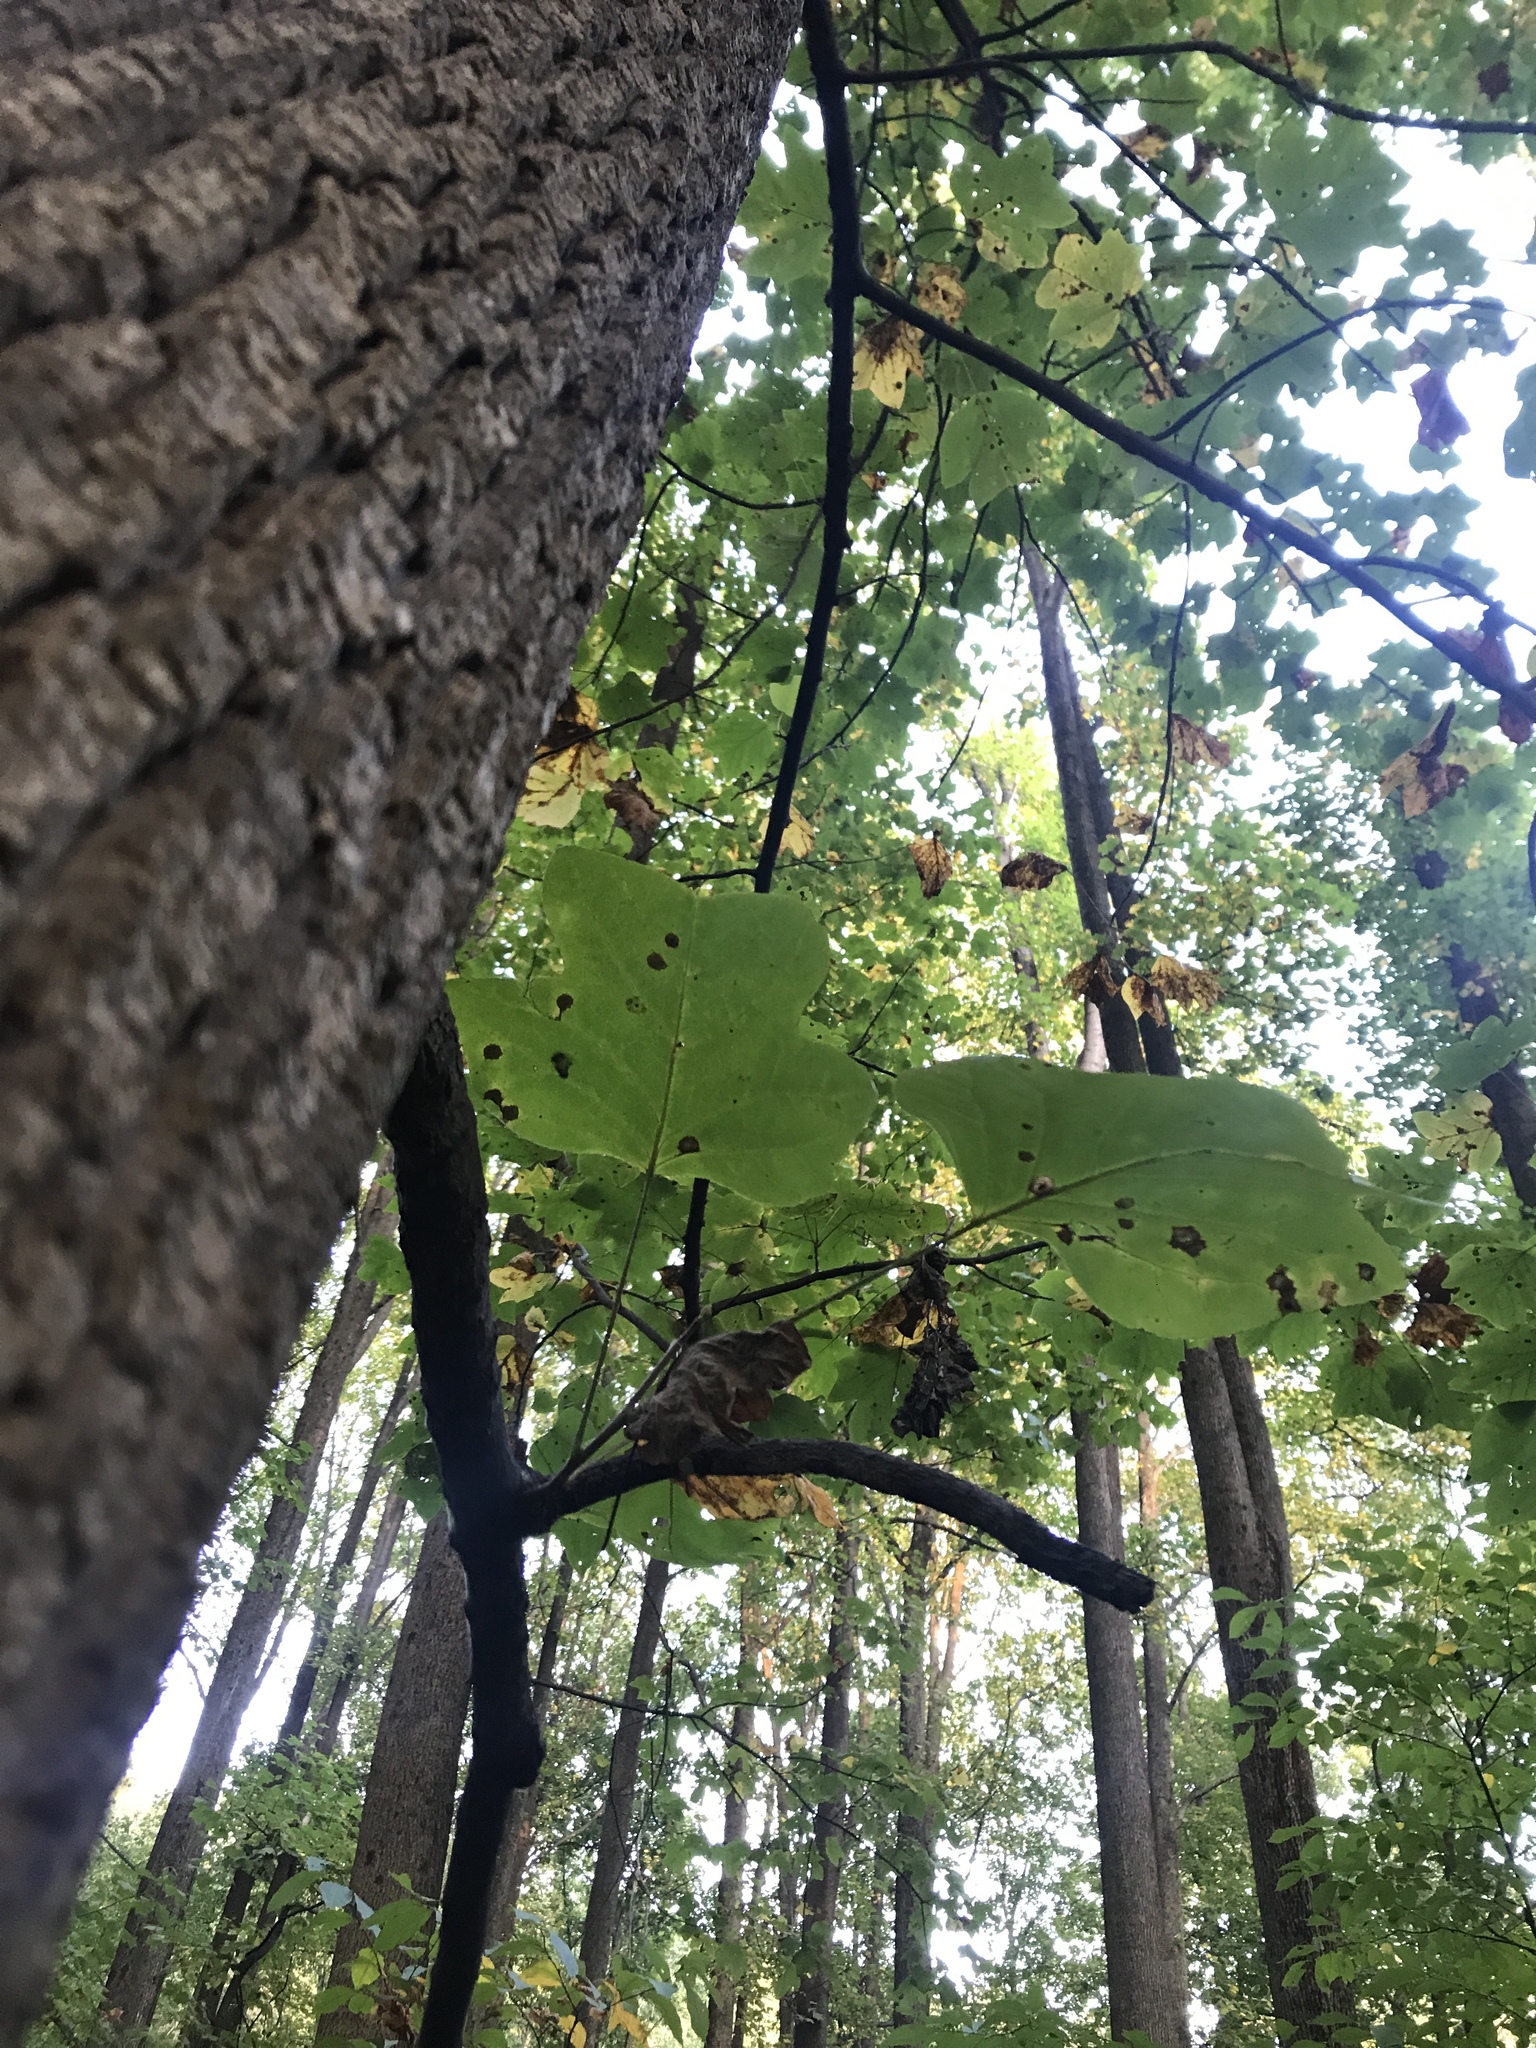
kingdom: Plantae
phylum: Tracheophyta
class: Magnoliopsida
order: Magnoliales
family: Magnoliaceae
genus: Liriodendron
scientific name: Liriodendron tulipifera
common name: Tulip tree
